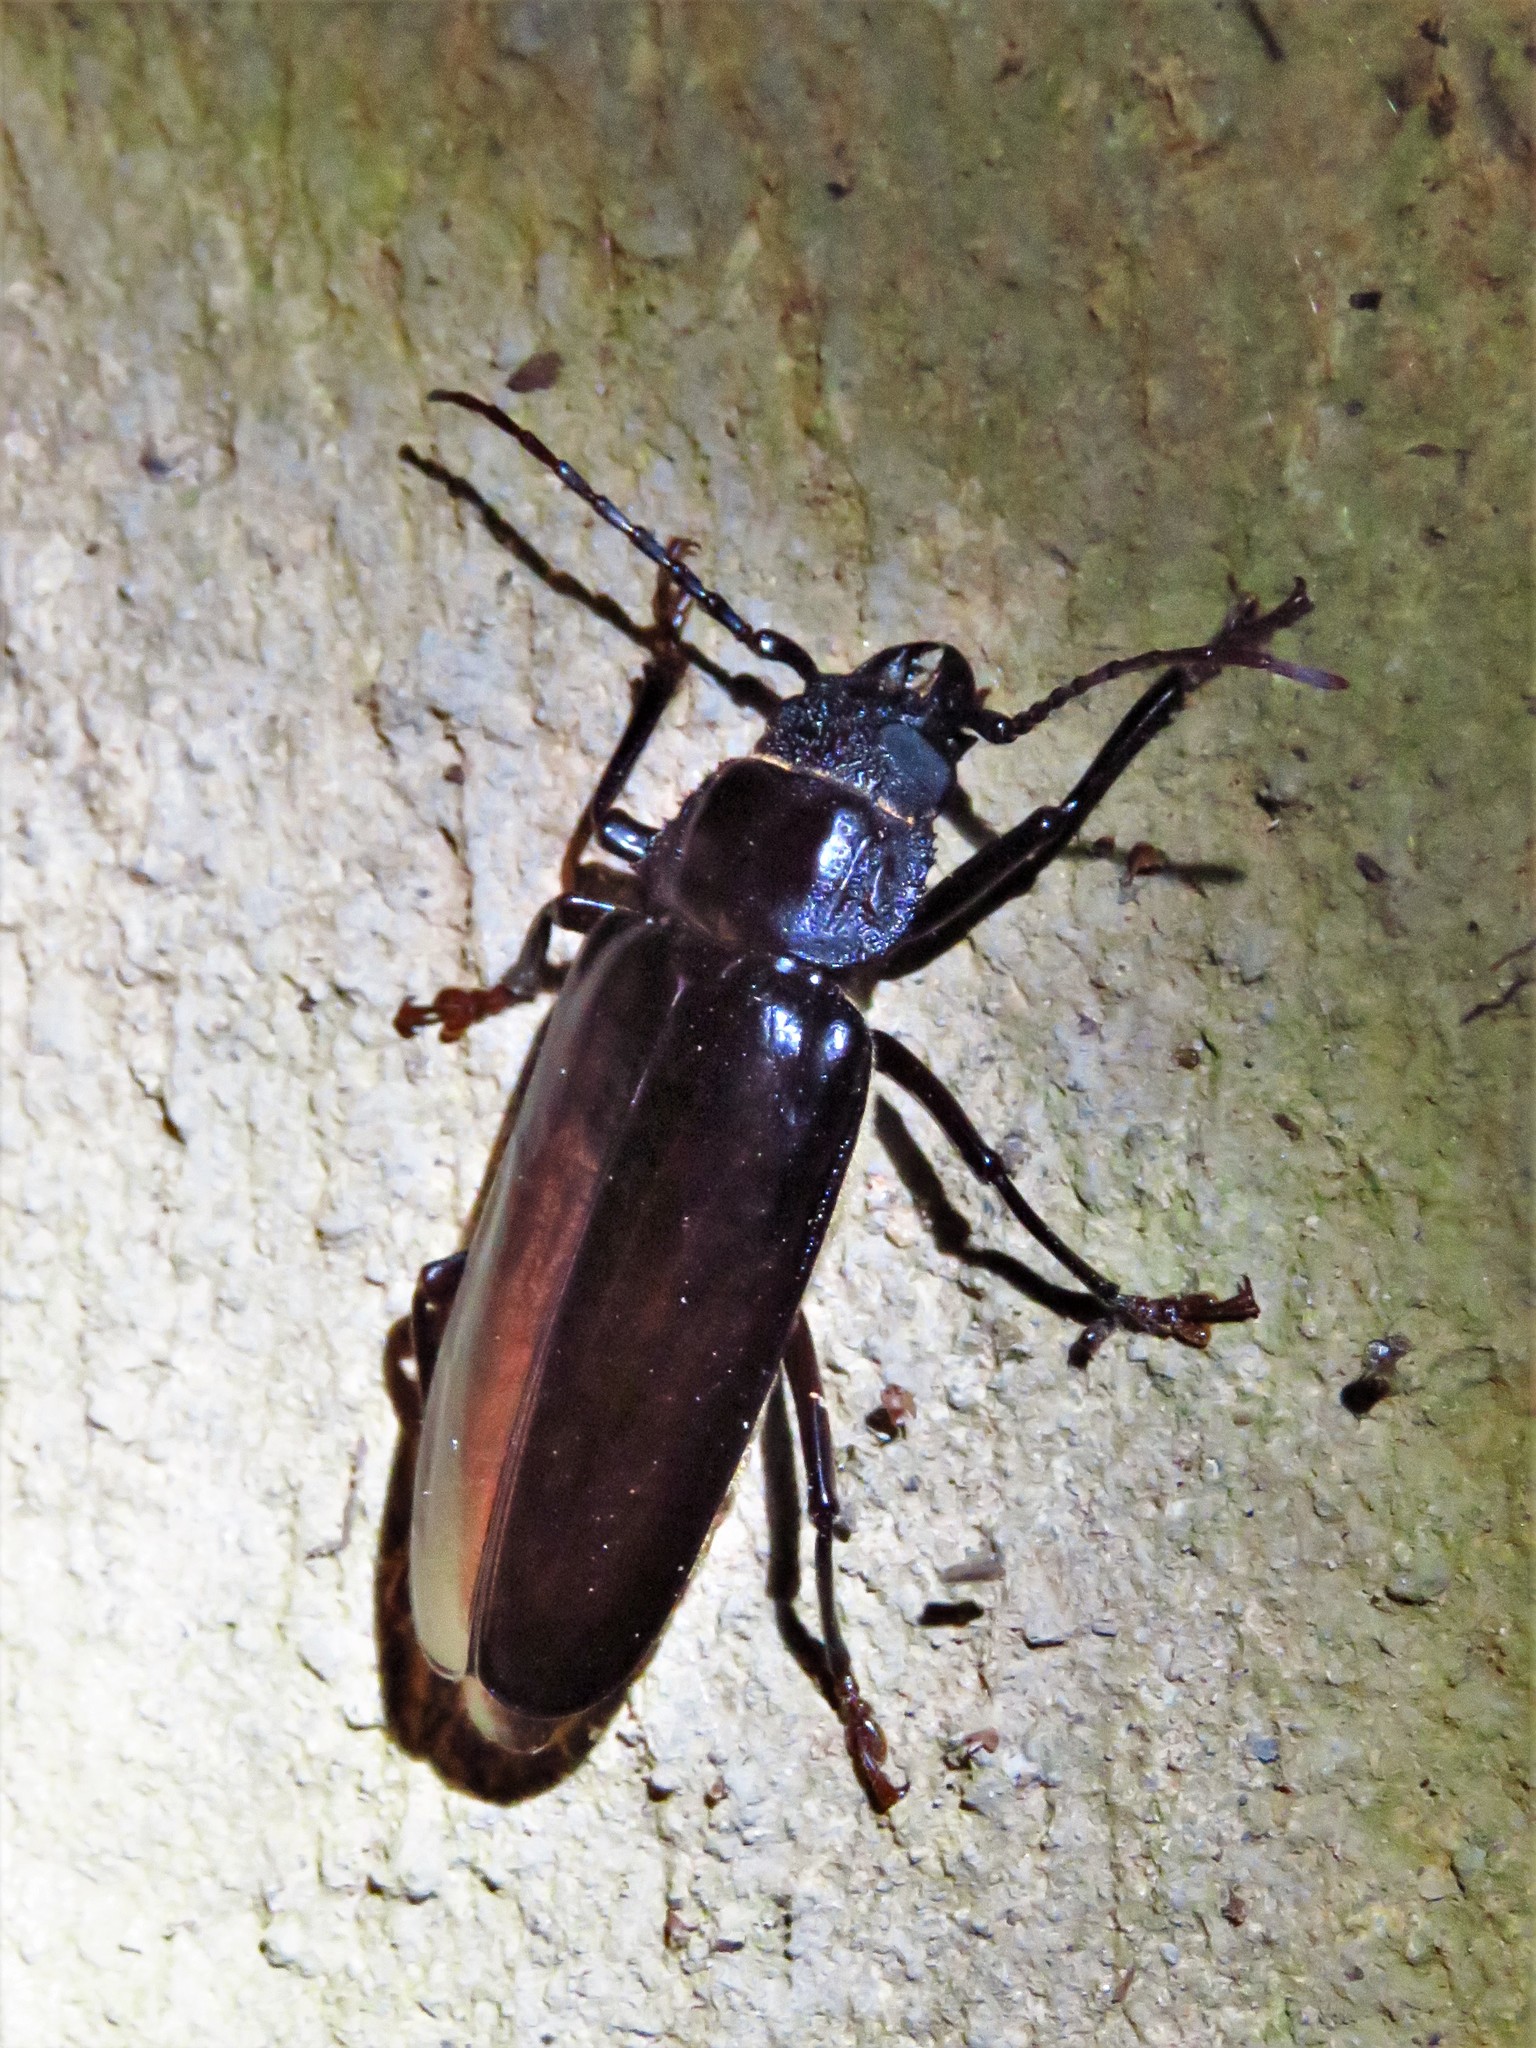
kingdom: Animalia
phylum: Arthropoda
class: Insecta
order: Coleoptera
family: Cerambycidae
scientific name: Cerambycidae
